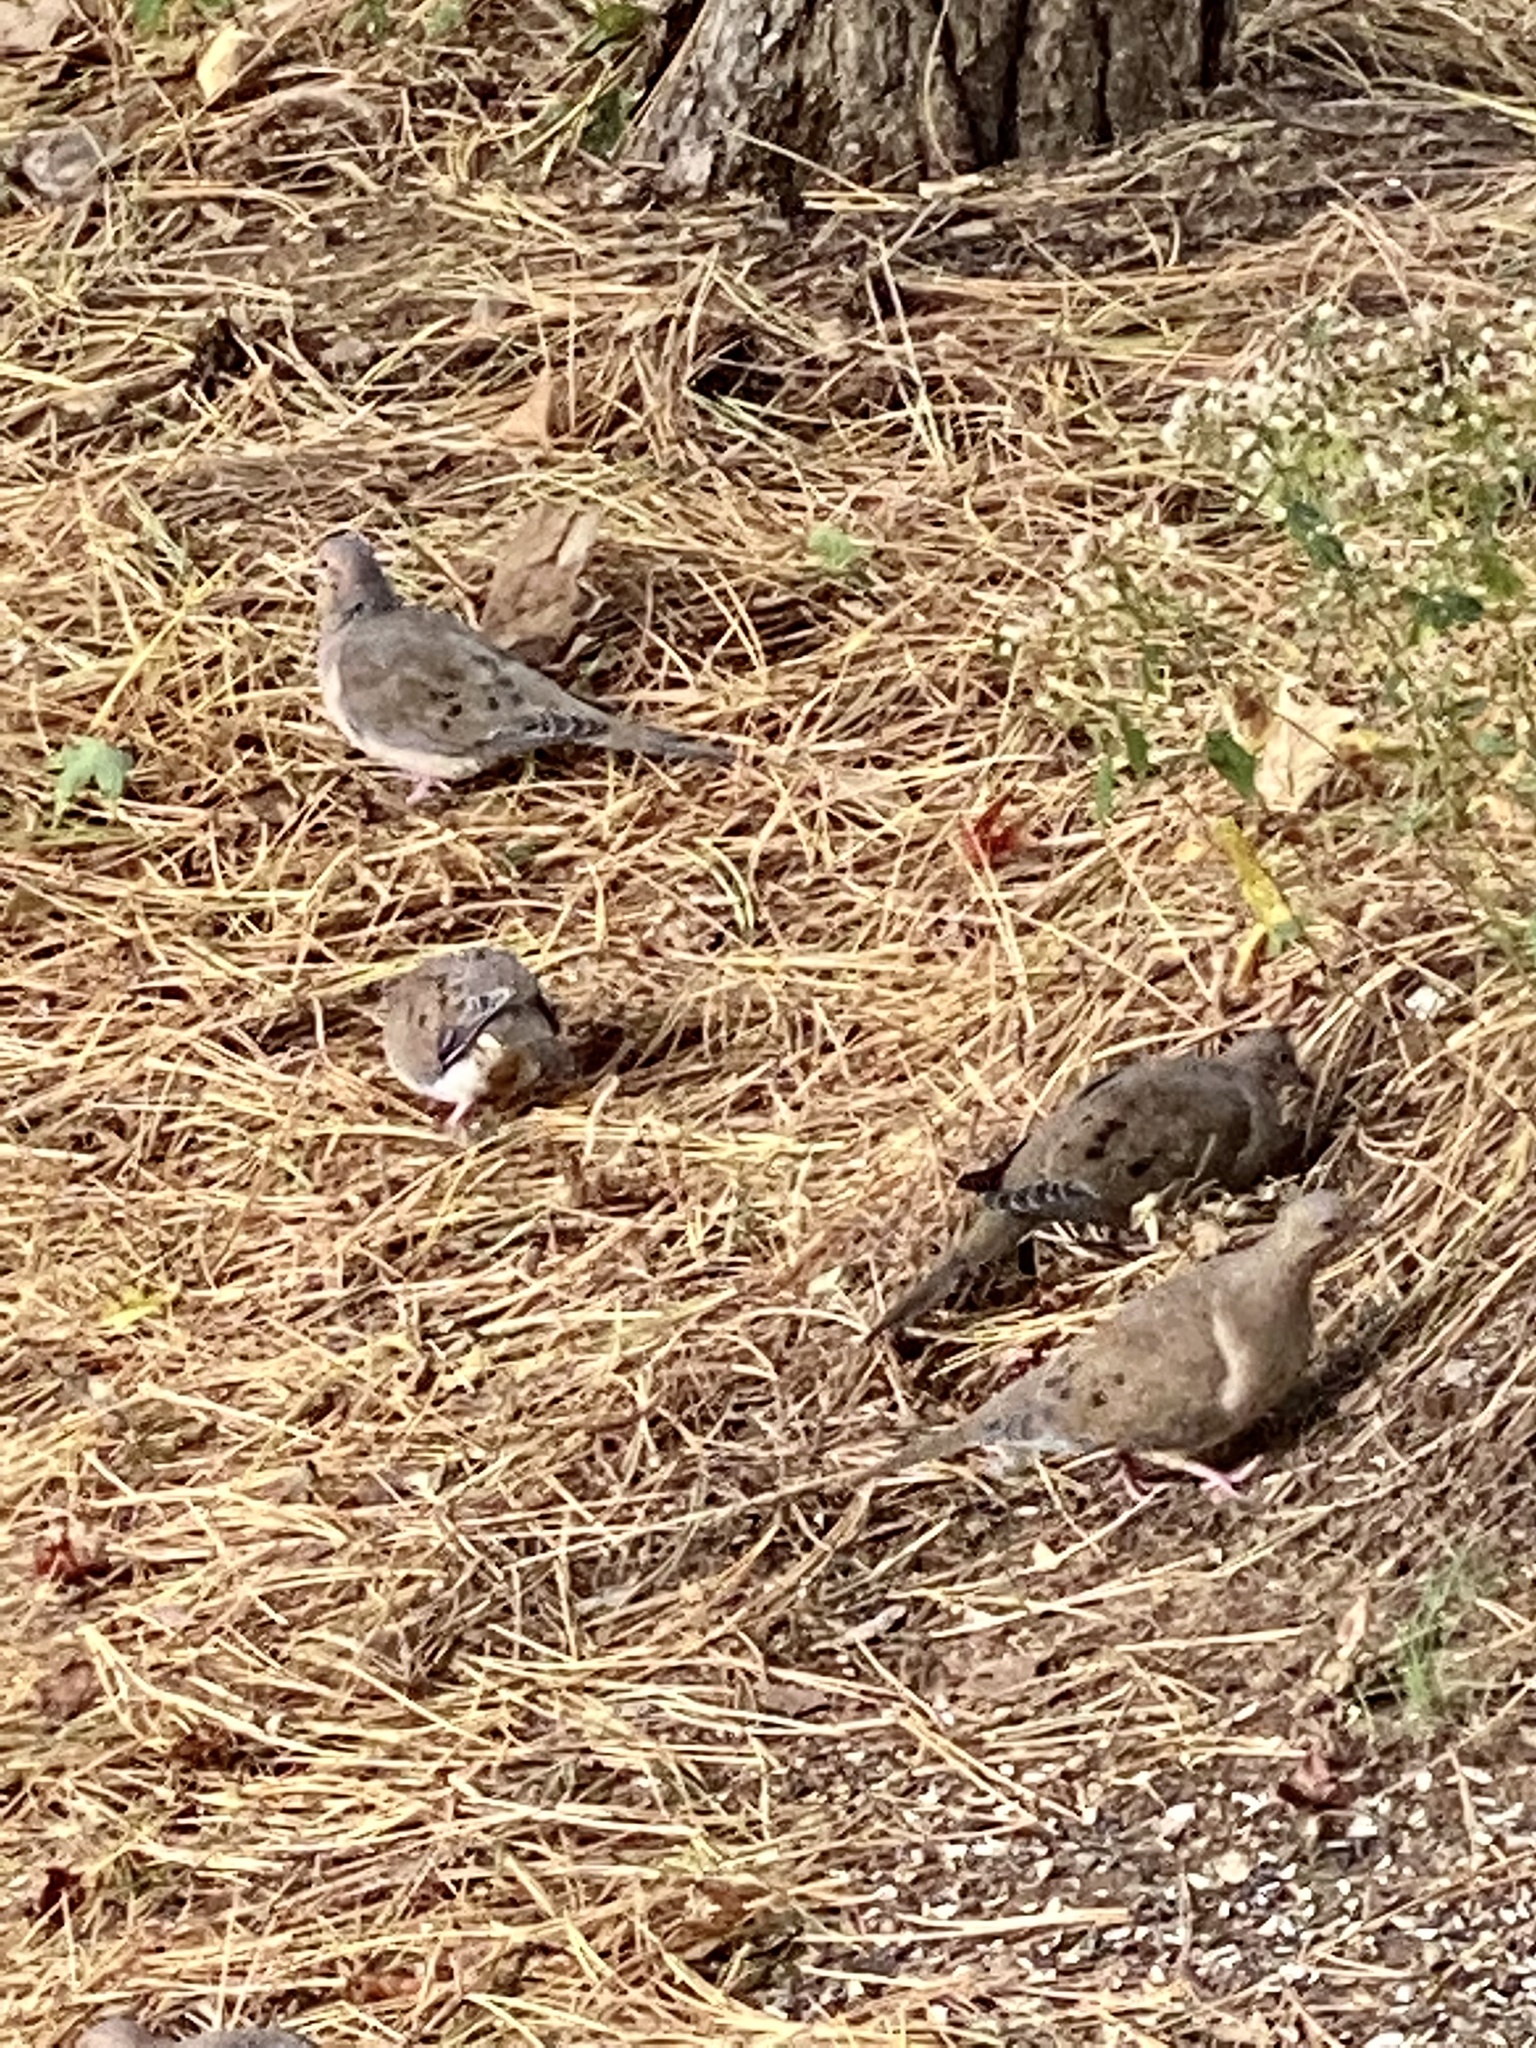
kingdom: Animalia
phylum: Chordata
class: Aves
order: Columbiformes
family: Columbidae
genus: Zenaida
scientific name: Zenaida macroura
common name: Mourning dove
